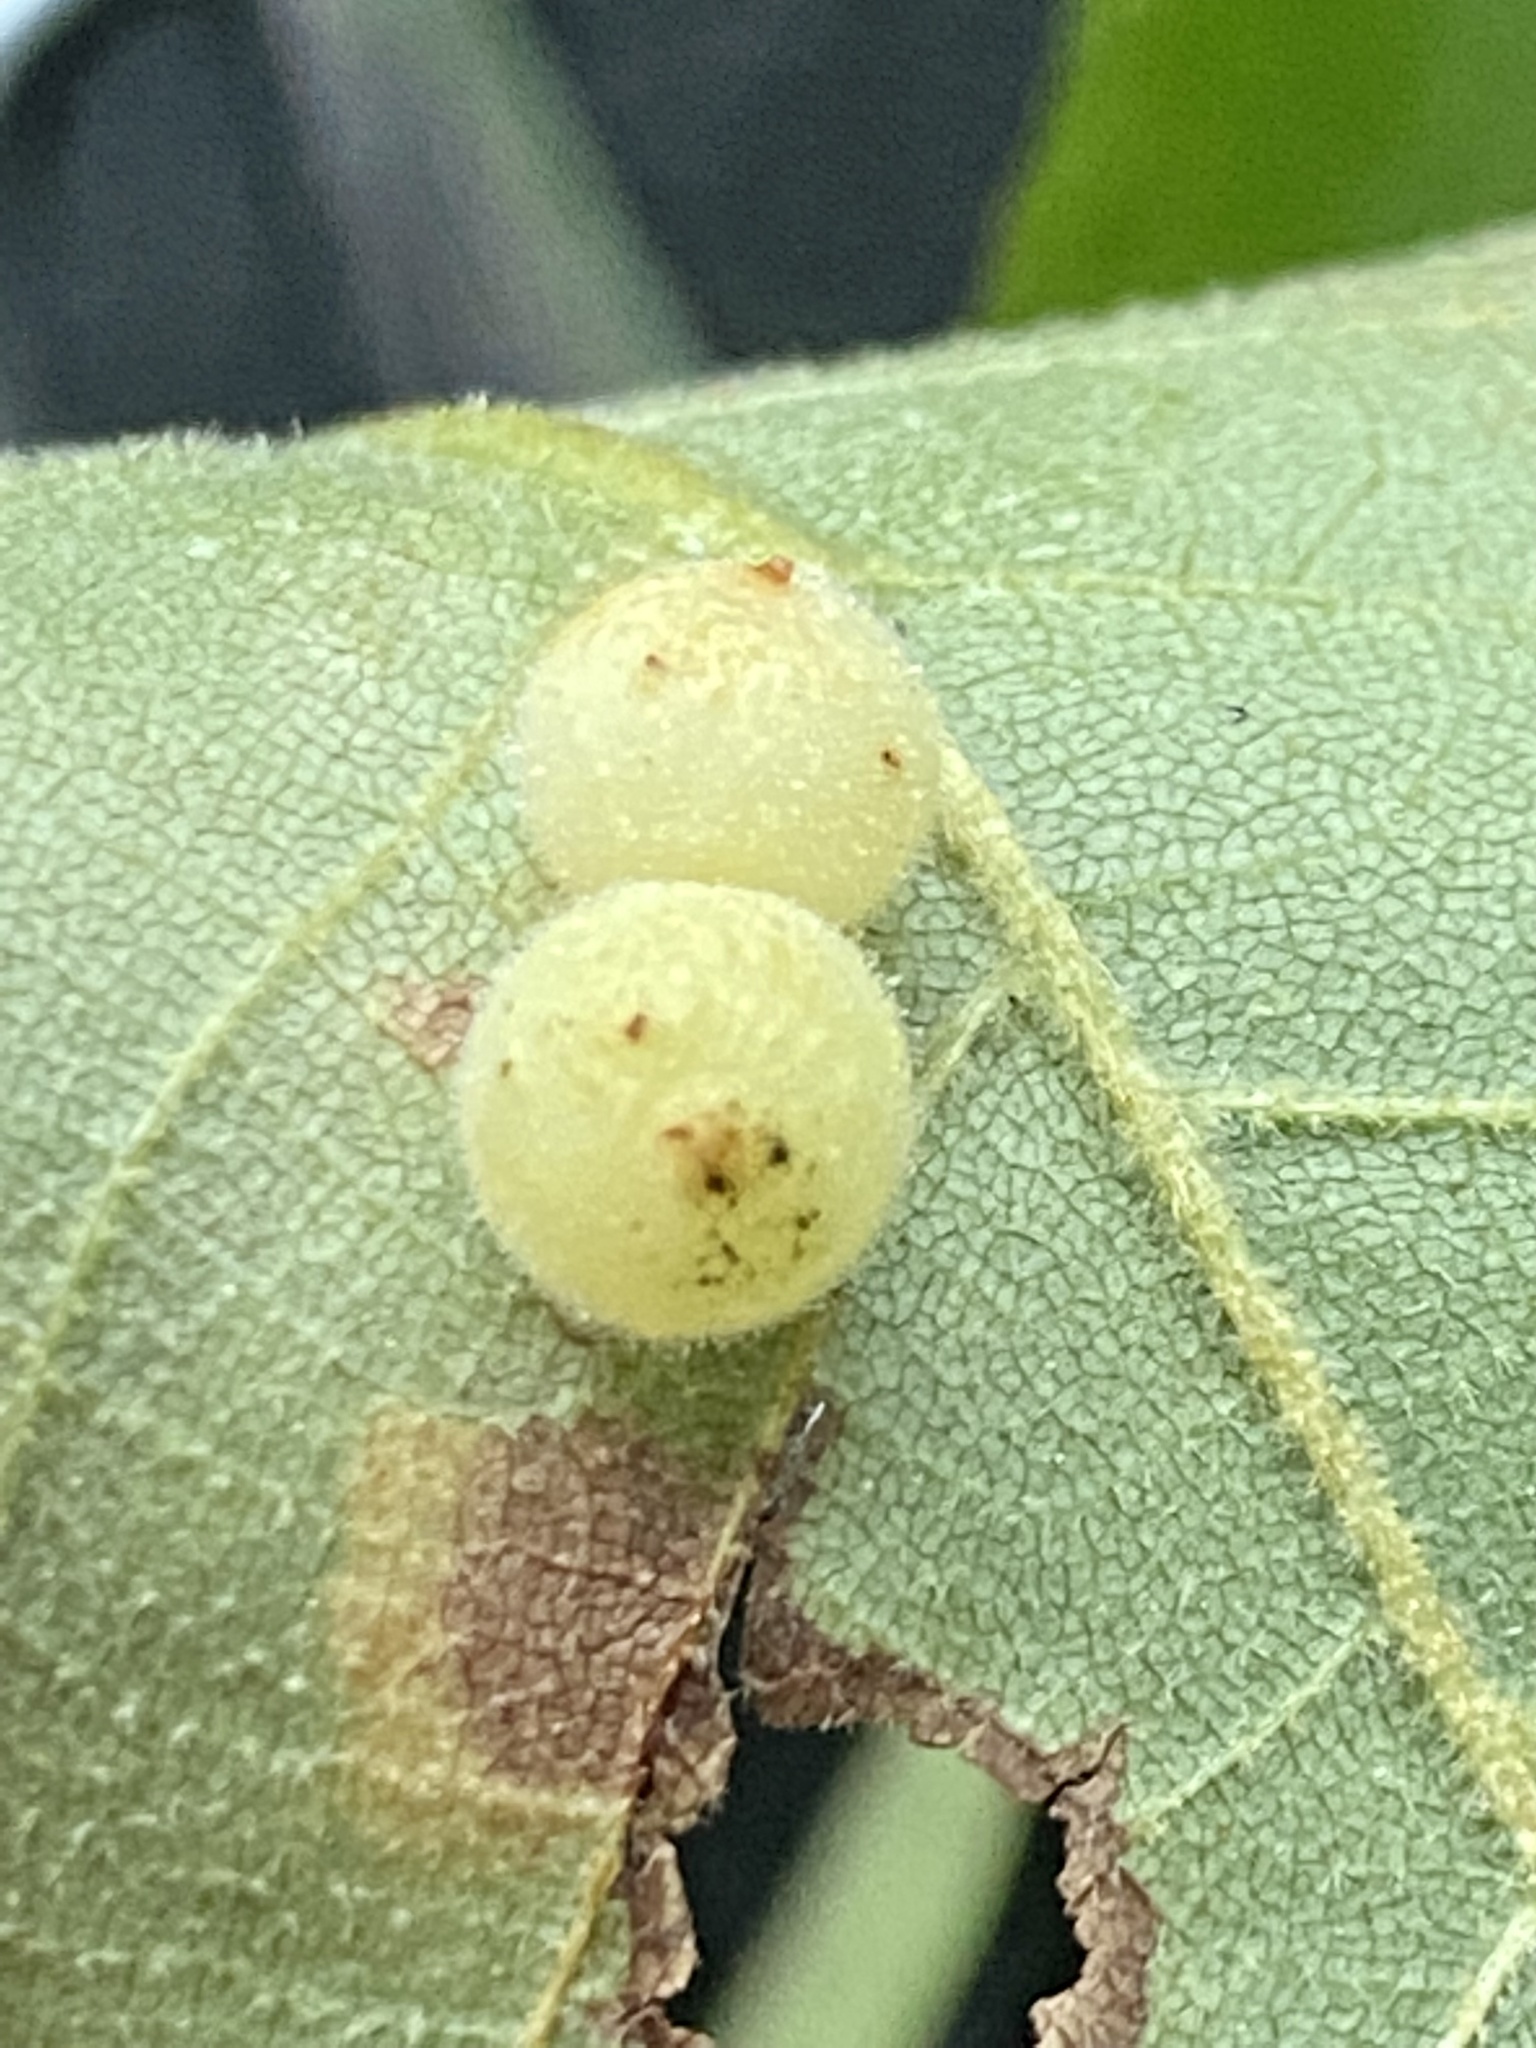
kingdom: Animalia
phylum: Arthropoda
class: Insecta
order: Diptera
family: Cecidomyiidae
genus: Caryomyia
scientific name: Caryomyia tuberidolium
